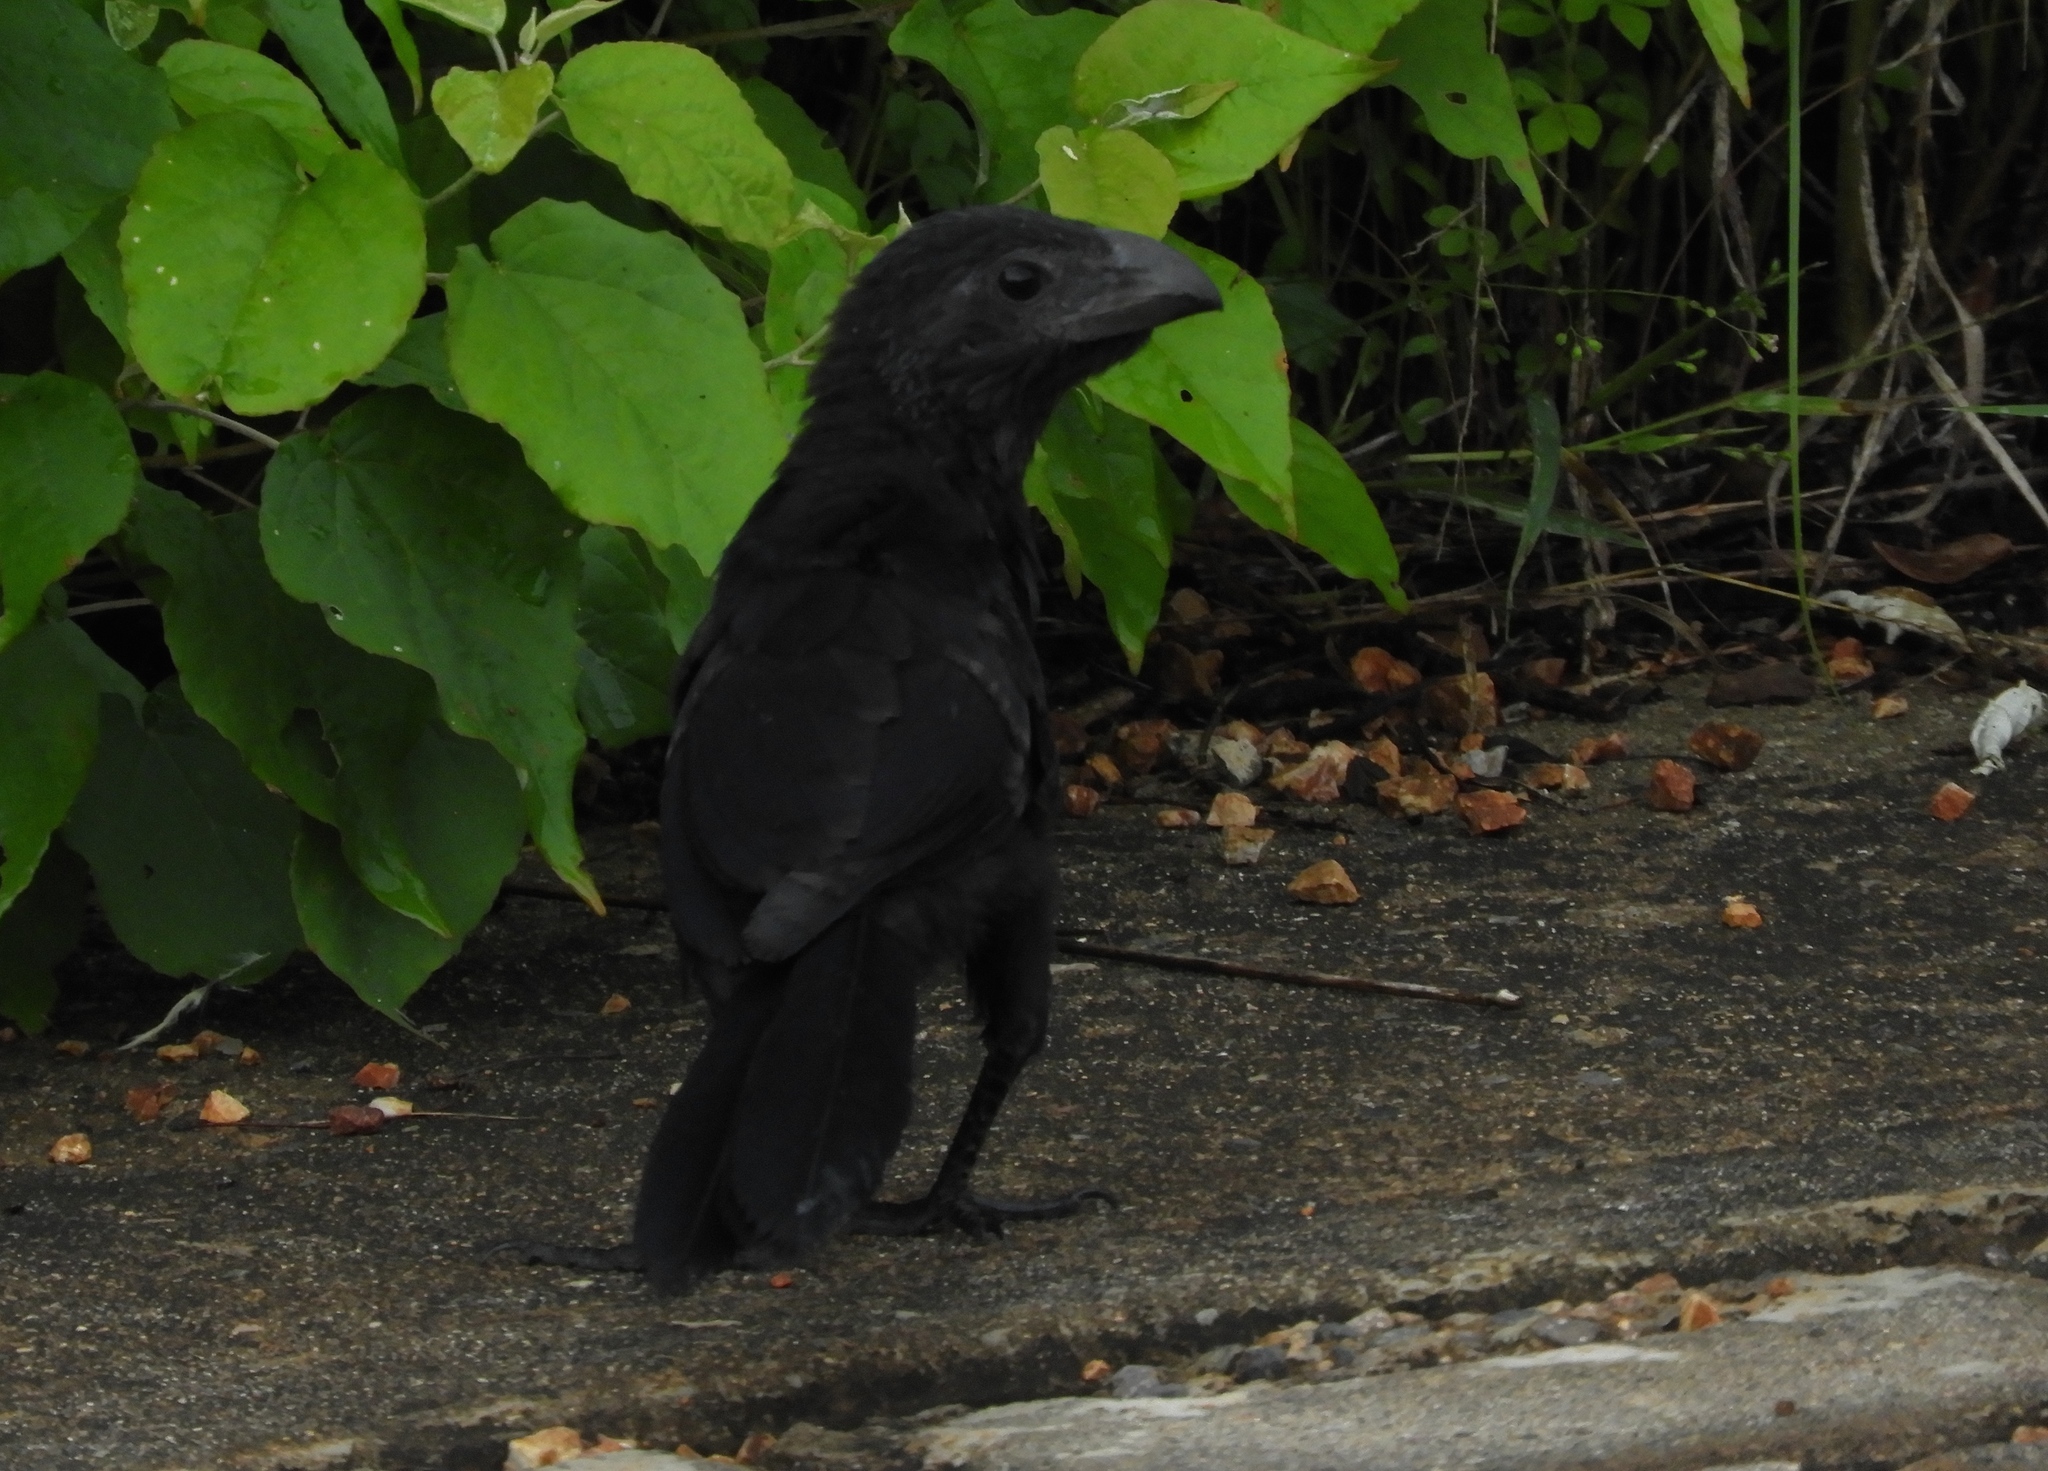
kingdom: Animalia
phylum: Chordata
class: Aves
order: Cuculiformes
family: Cuculidae
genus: Crotophaga
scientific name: Crotophaga sulcirostris
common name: Groove-billed ani
